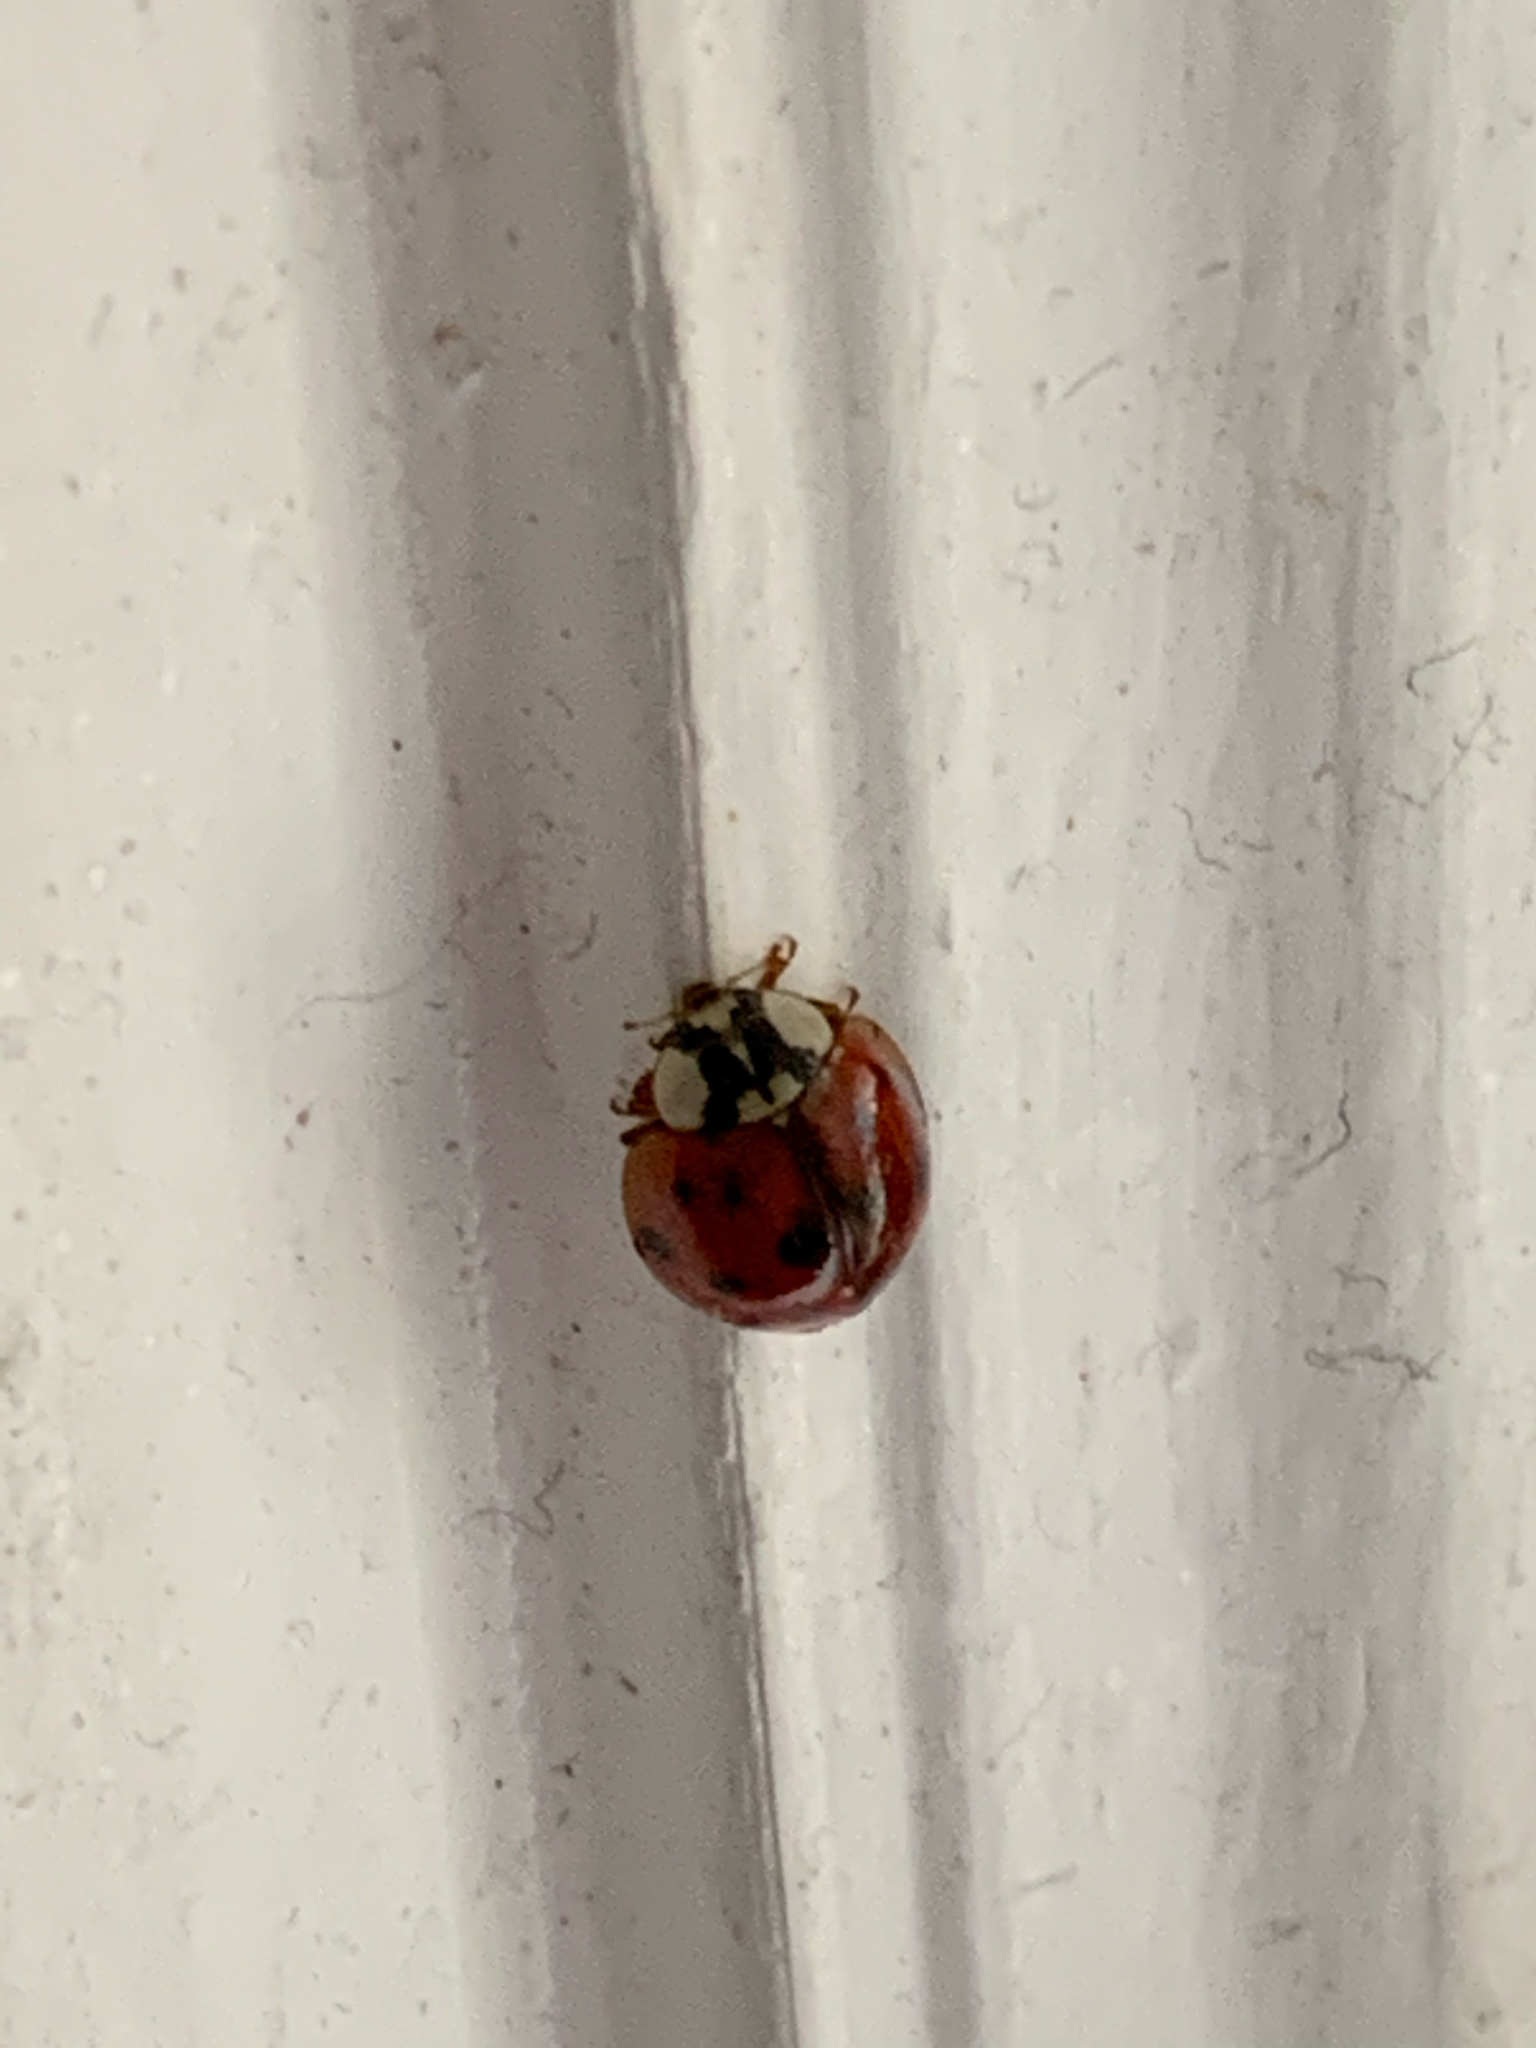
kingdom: Animalia
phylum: Arthropoda
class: Insecta
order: Coleoptera
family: Coccinellidae
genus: Harmonia
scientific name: Harmonia axyridis
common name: Harlequin ladybird
